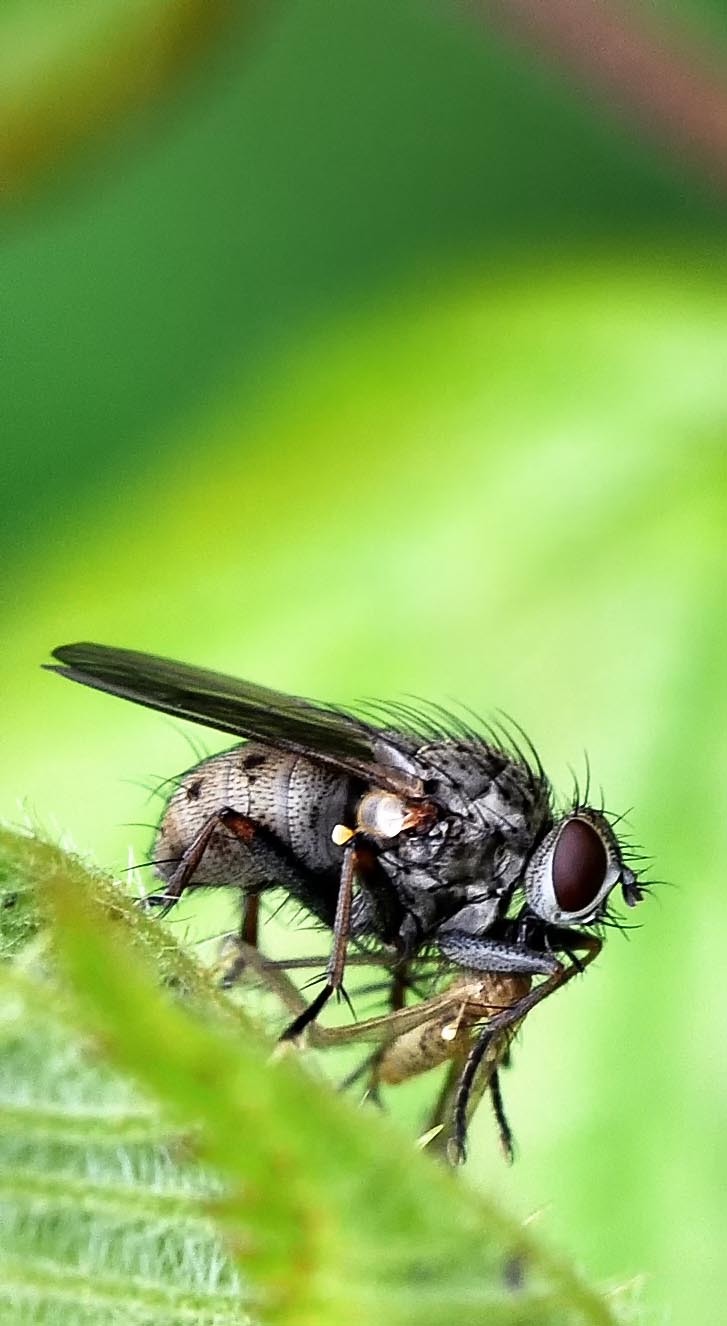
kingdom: Animalia
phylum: Arthropoda
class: Insecta
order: Diptera
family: Muscidae
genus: Coenosia
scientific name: Coenosia tigrina
